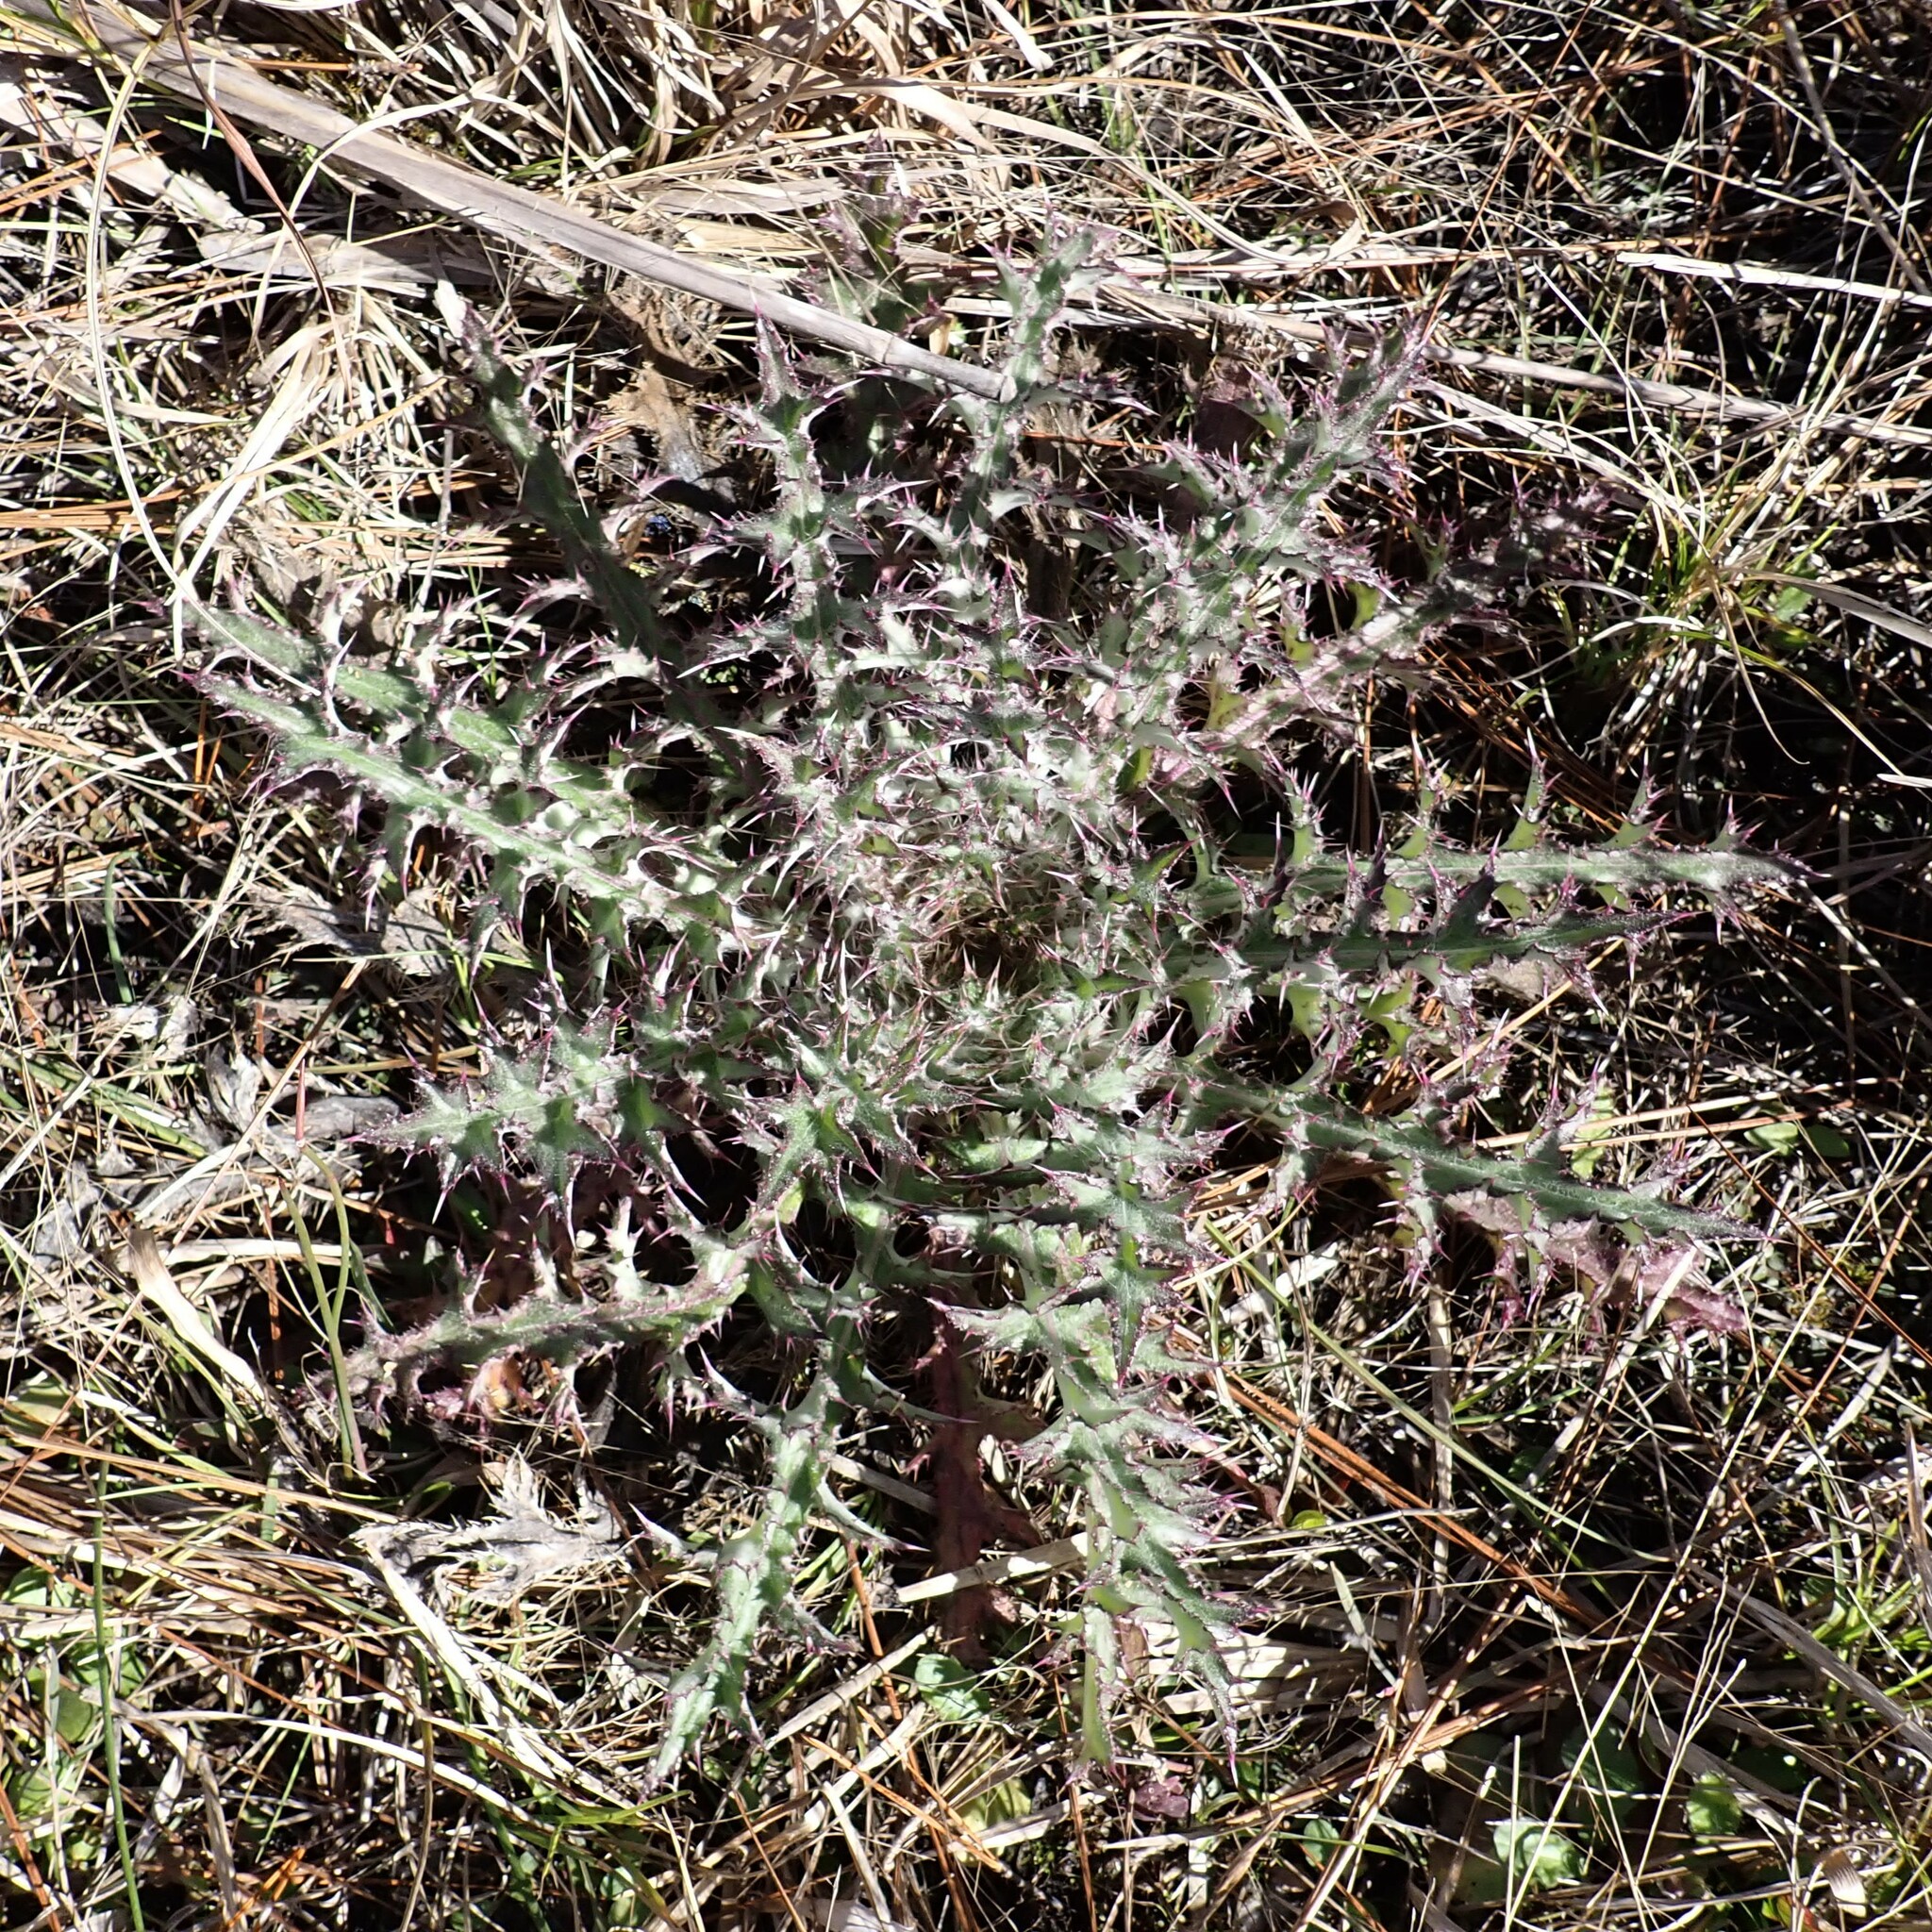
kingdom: Plantae
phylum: Tracheophyta
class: Magnoliopsida
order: Asterales
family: Asteraceae
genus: Cirsium
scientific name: Cirsium horridulum
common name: Bristly thistle
